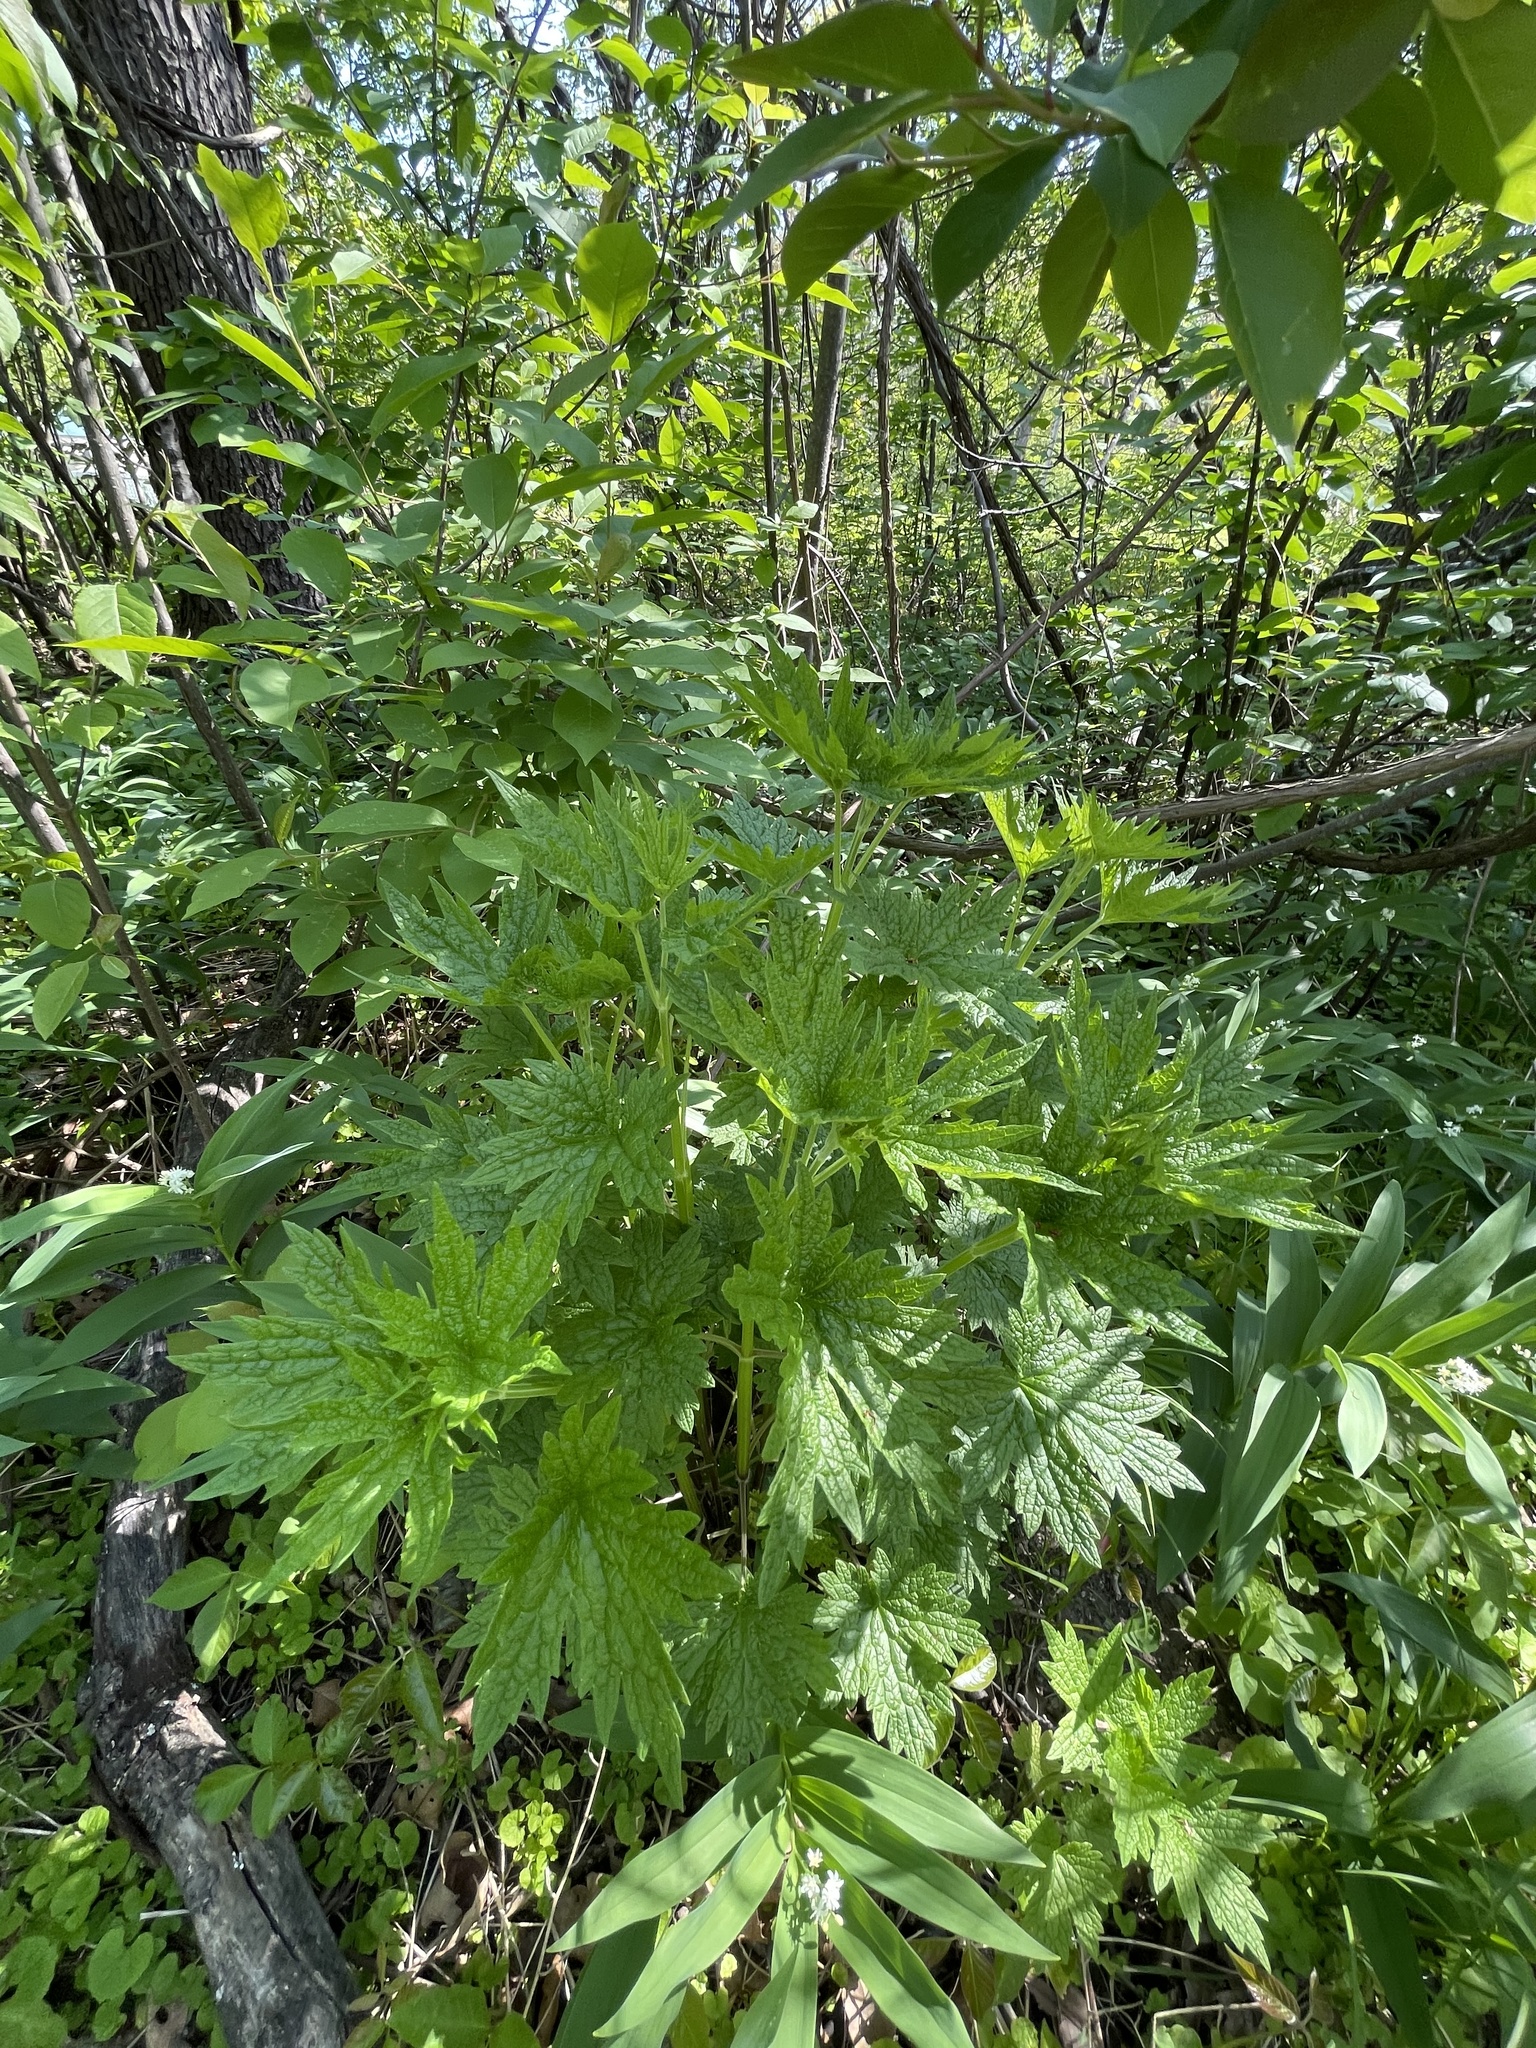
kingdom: Plantae
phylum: Tracheophyta
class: Magnoliopsida
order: Lamiales
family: Lamiaceae
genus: Leonurus
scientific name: Leonurus cardiaca
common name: Motherwort
